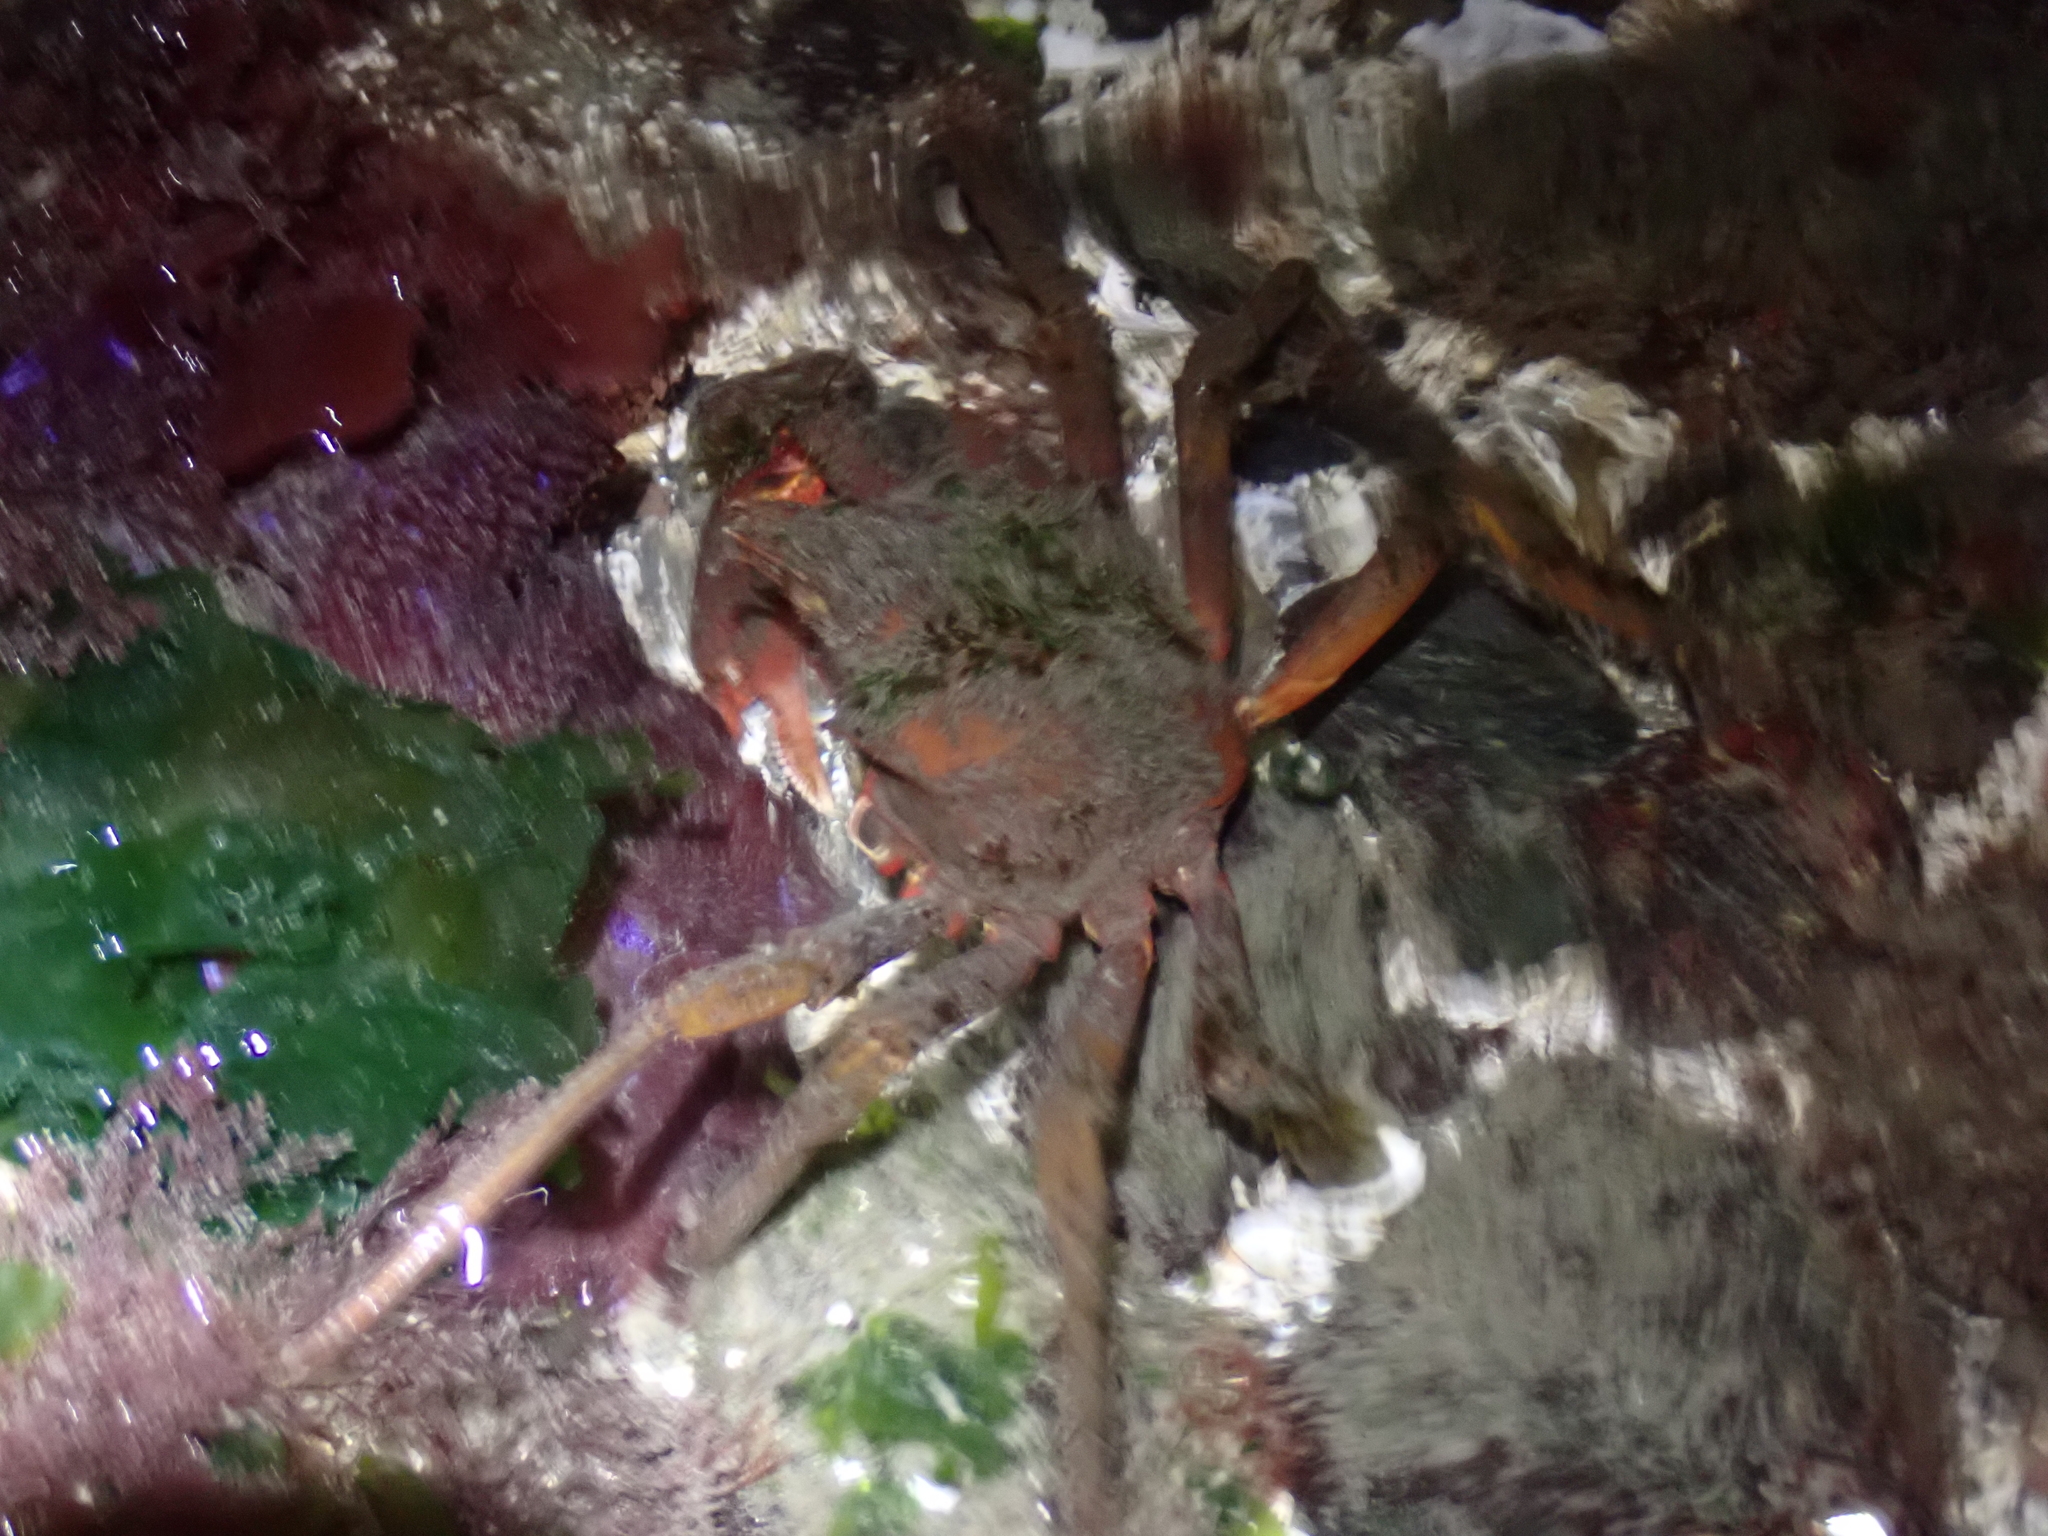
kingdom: Animalia
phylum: Arthropoda
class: Malacostraca
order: Decapoda
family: Epialtidae
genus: Pugettia
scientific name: Pugettia producta
